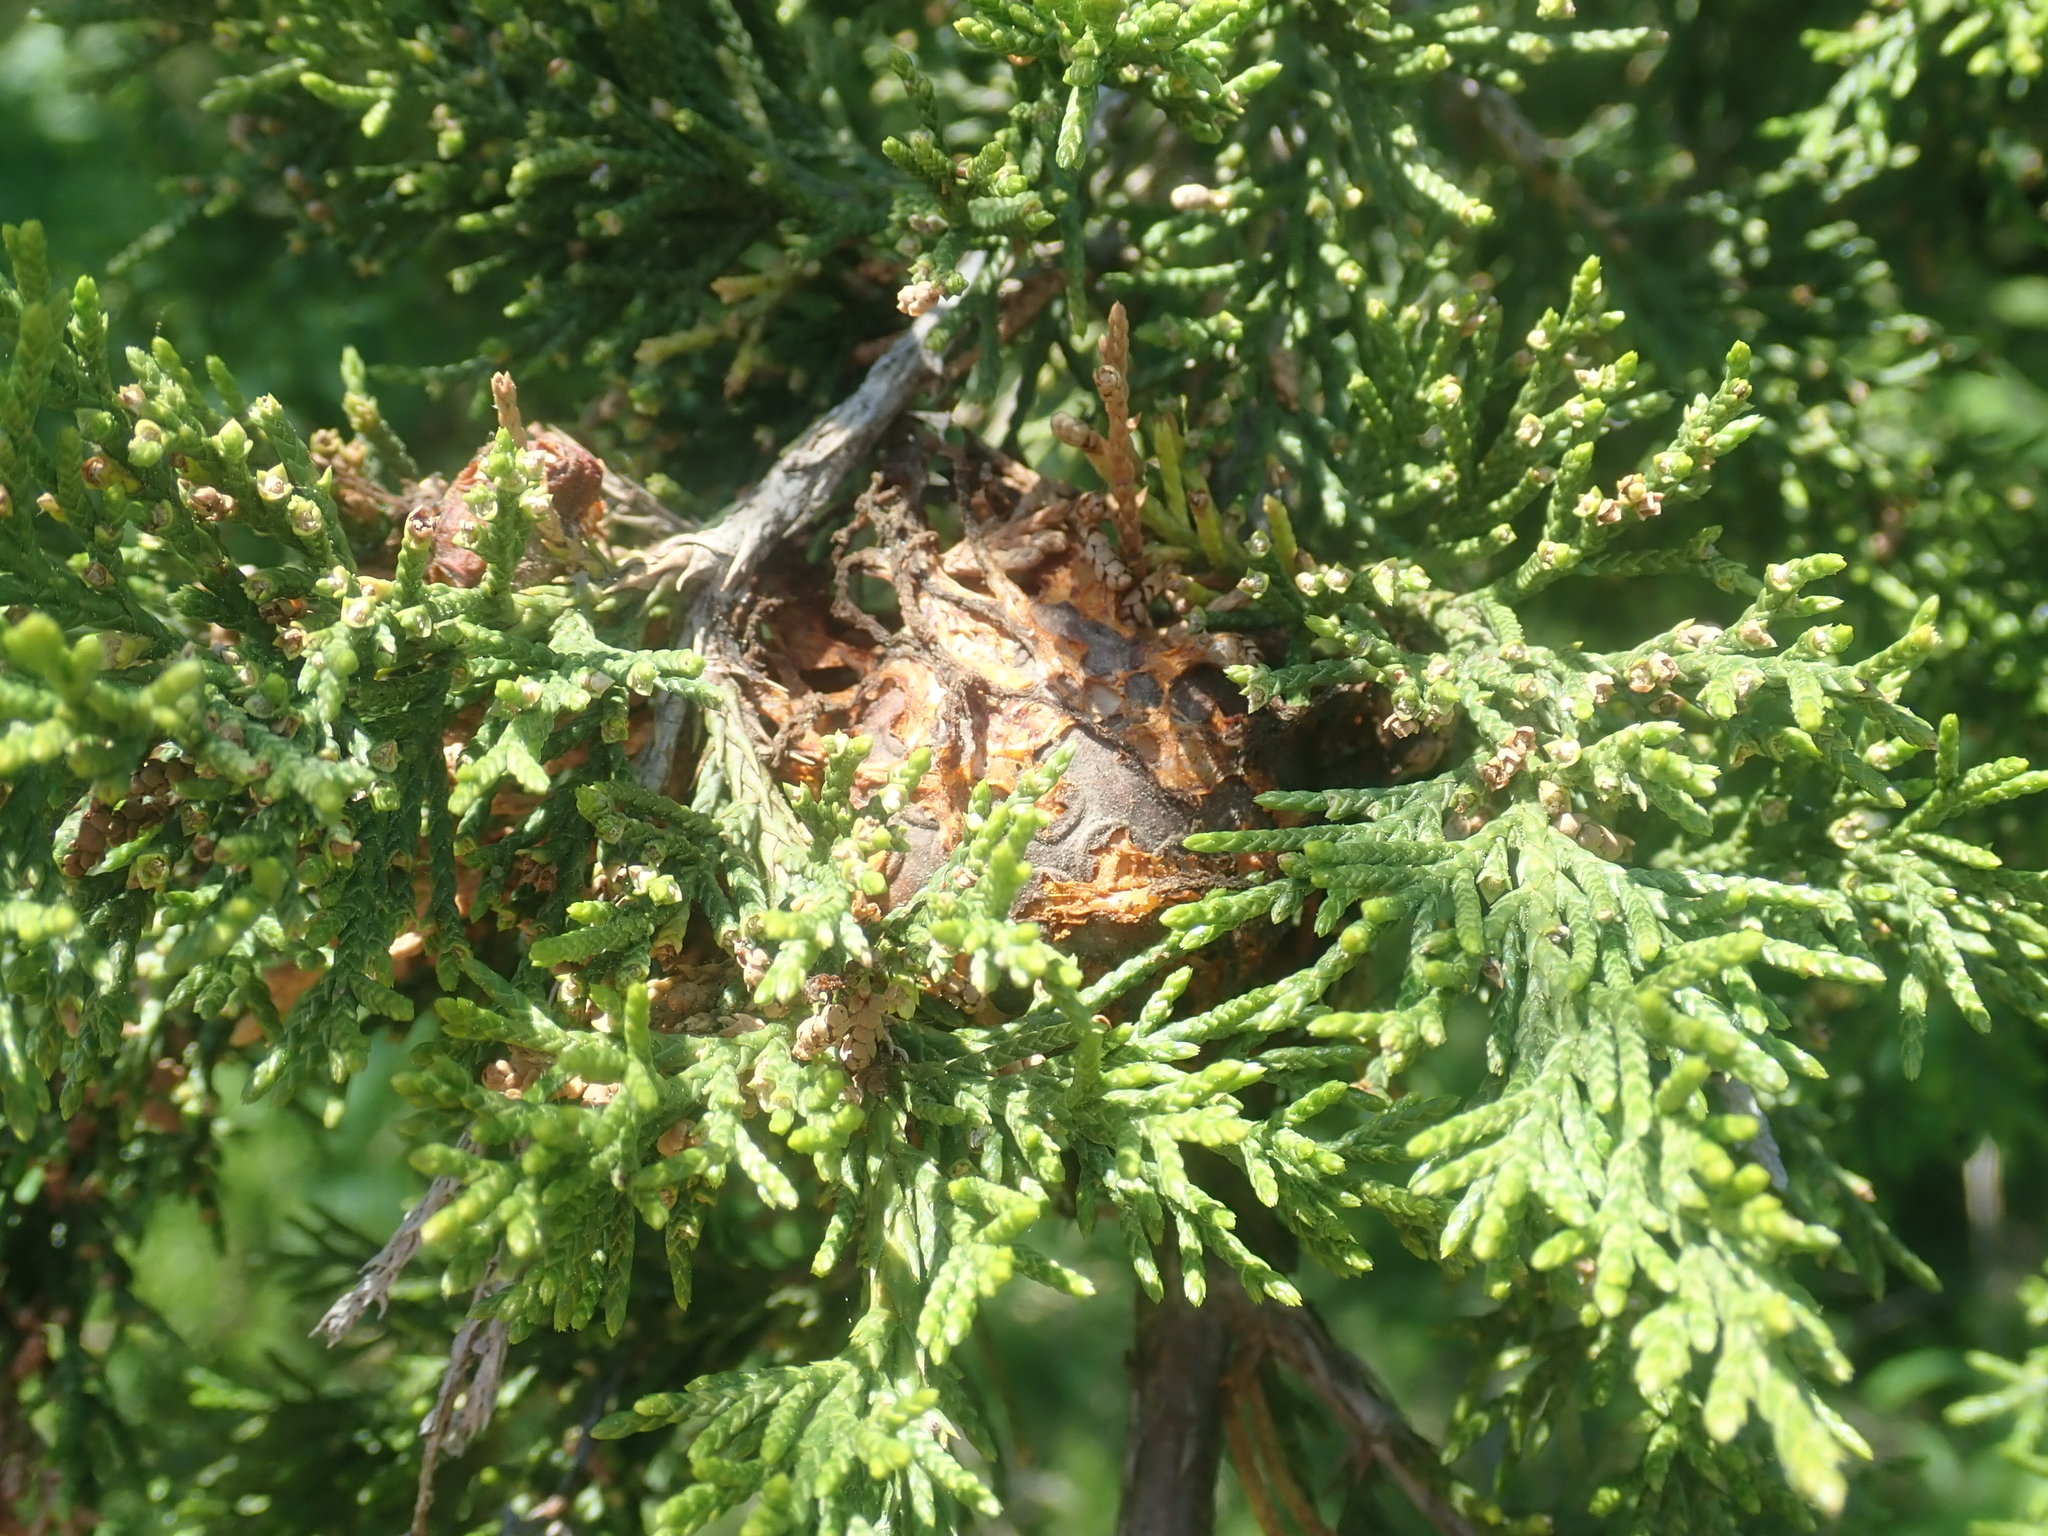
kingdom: Fungi
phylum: Basidiomycota
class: Pucciniomycetes
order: Pucciniales
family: Gymnosporangiaceae
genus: Gymnosporangium
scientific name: Gymnosporangium juniperi-virginianae
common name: Juniper-apple rust
